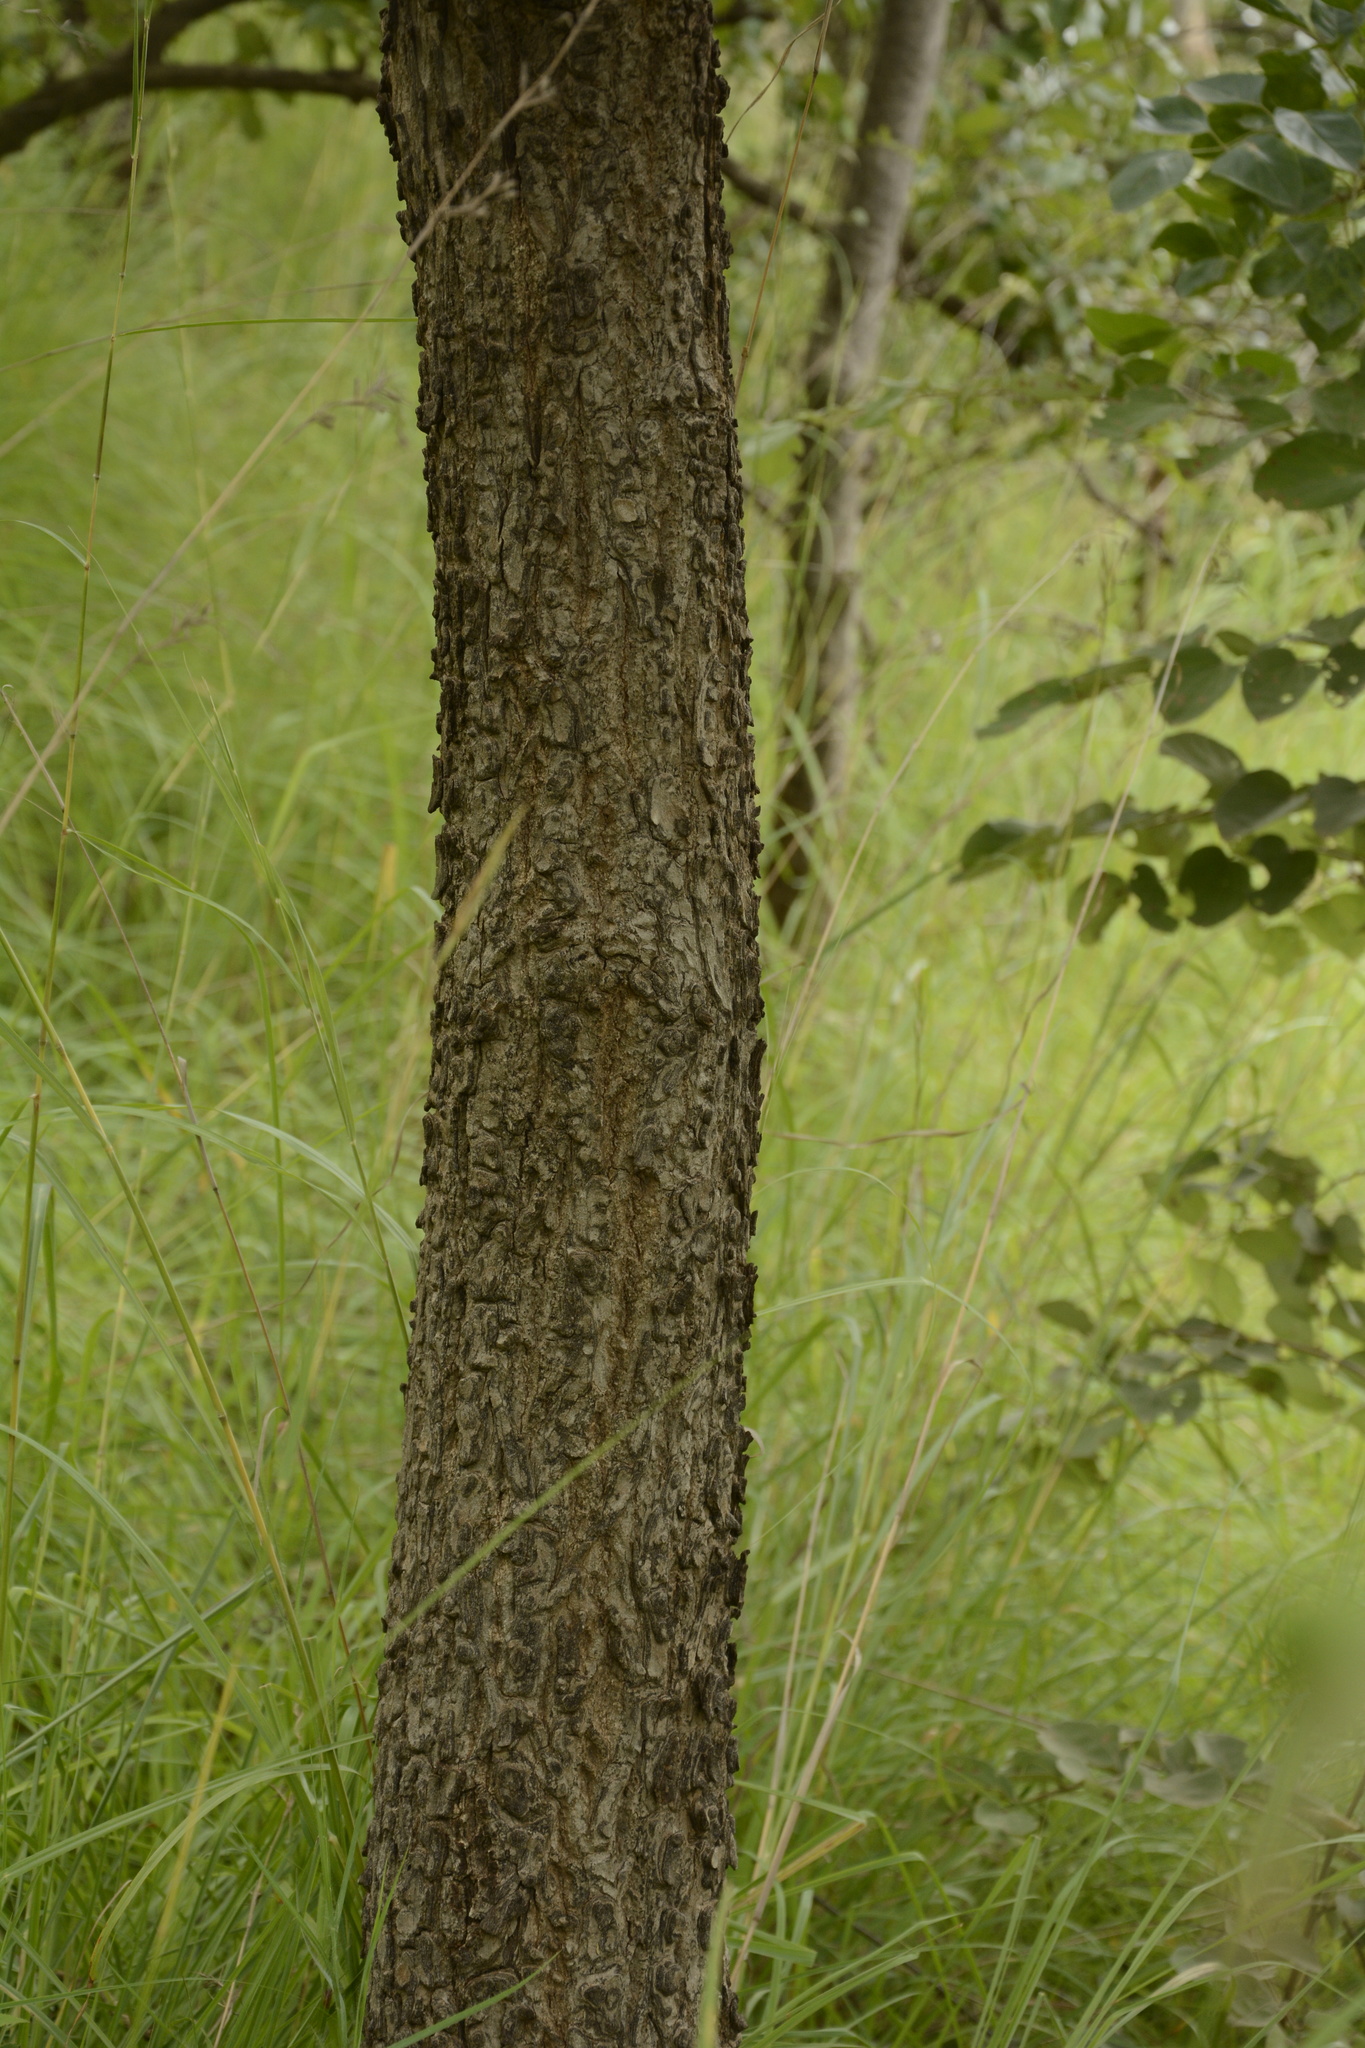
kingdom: Plantae
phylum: Tracheophyta
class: Magnoliopsida
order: Myrtales
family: Combretaceae
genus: Terminalia
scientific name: Terminalia elliptica
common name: Indian-laurel
